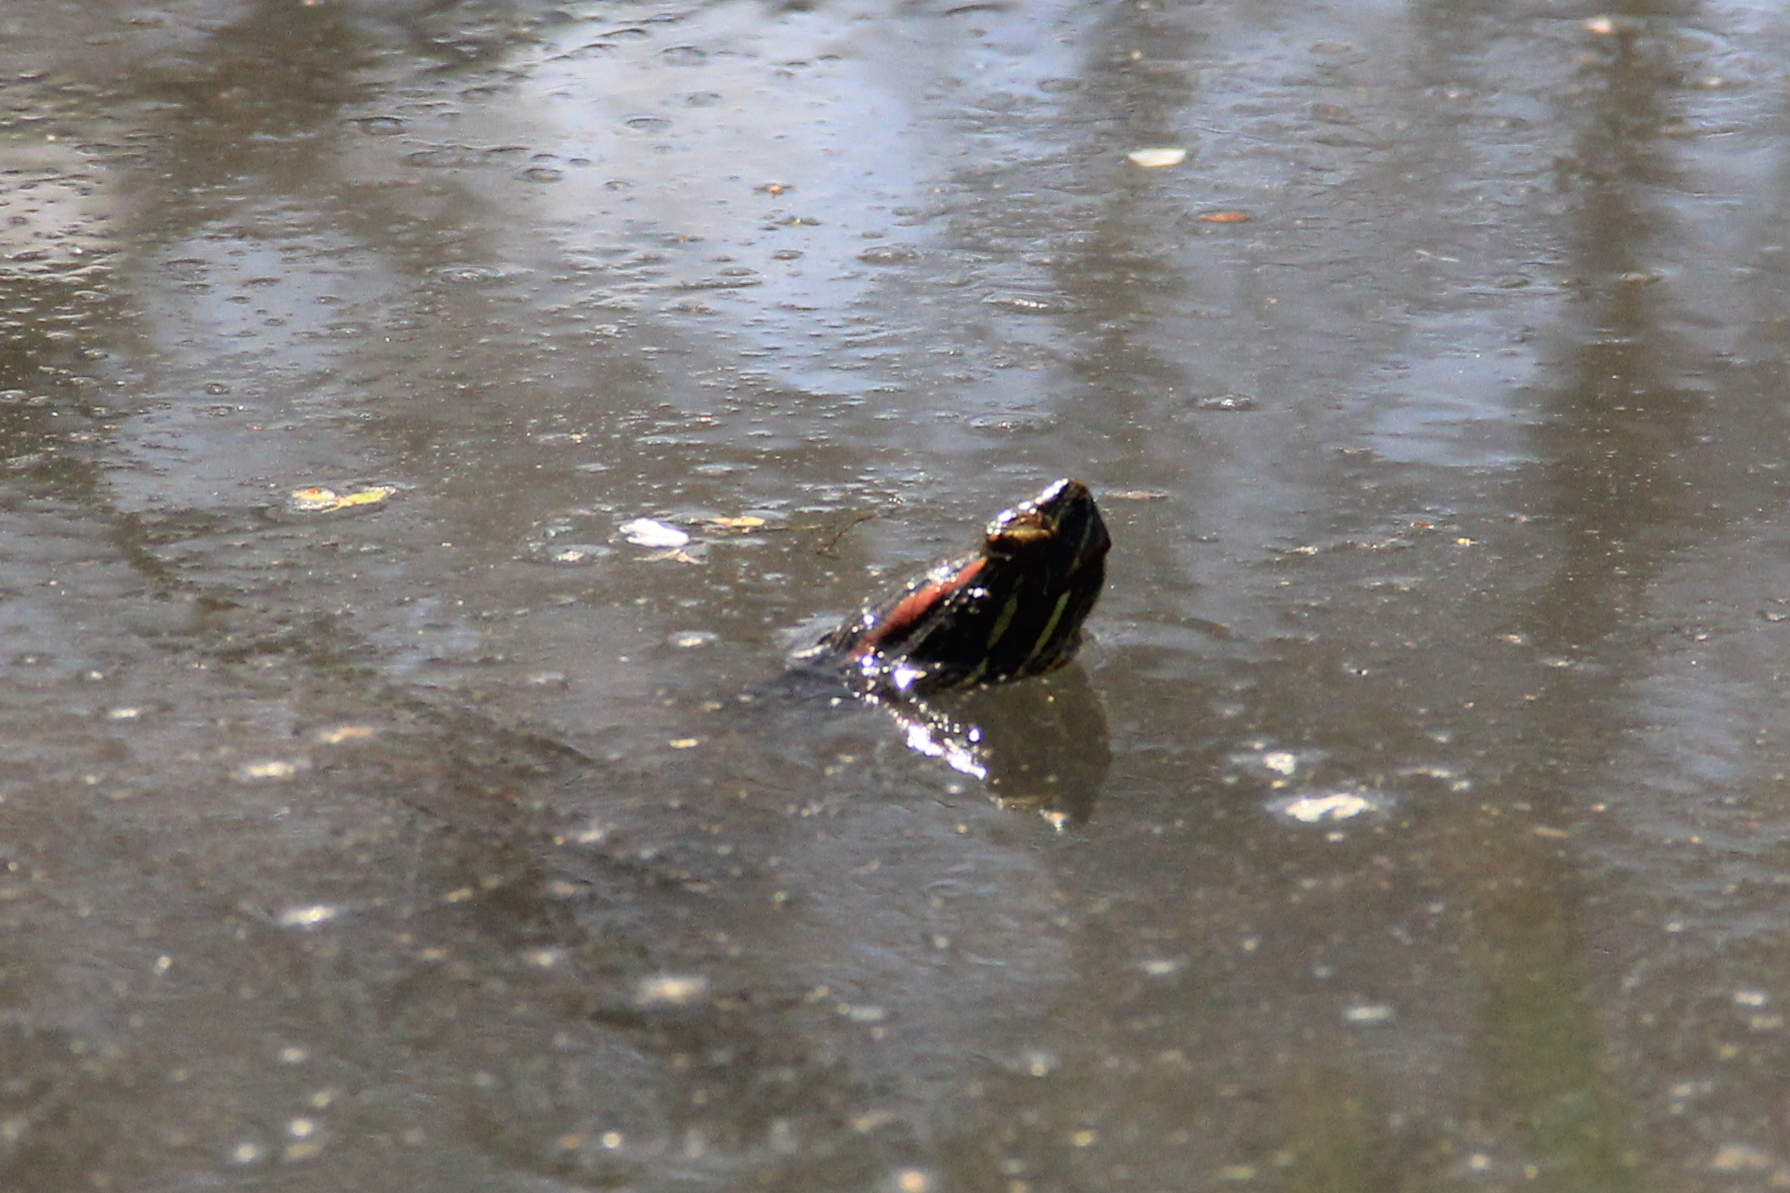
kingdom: Animalia
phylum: Chordata
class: Testudines
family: Emydidae
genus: Trachemys
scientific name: Trachemys scripta
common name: Slider
